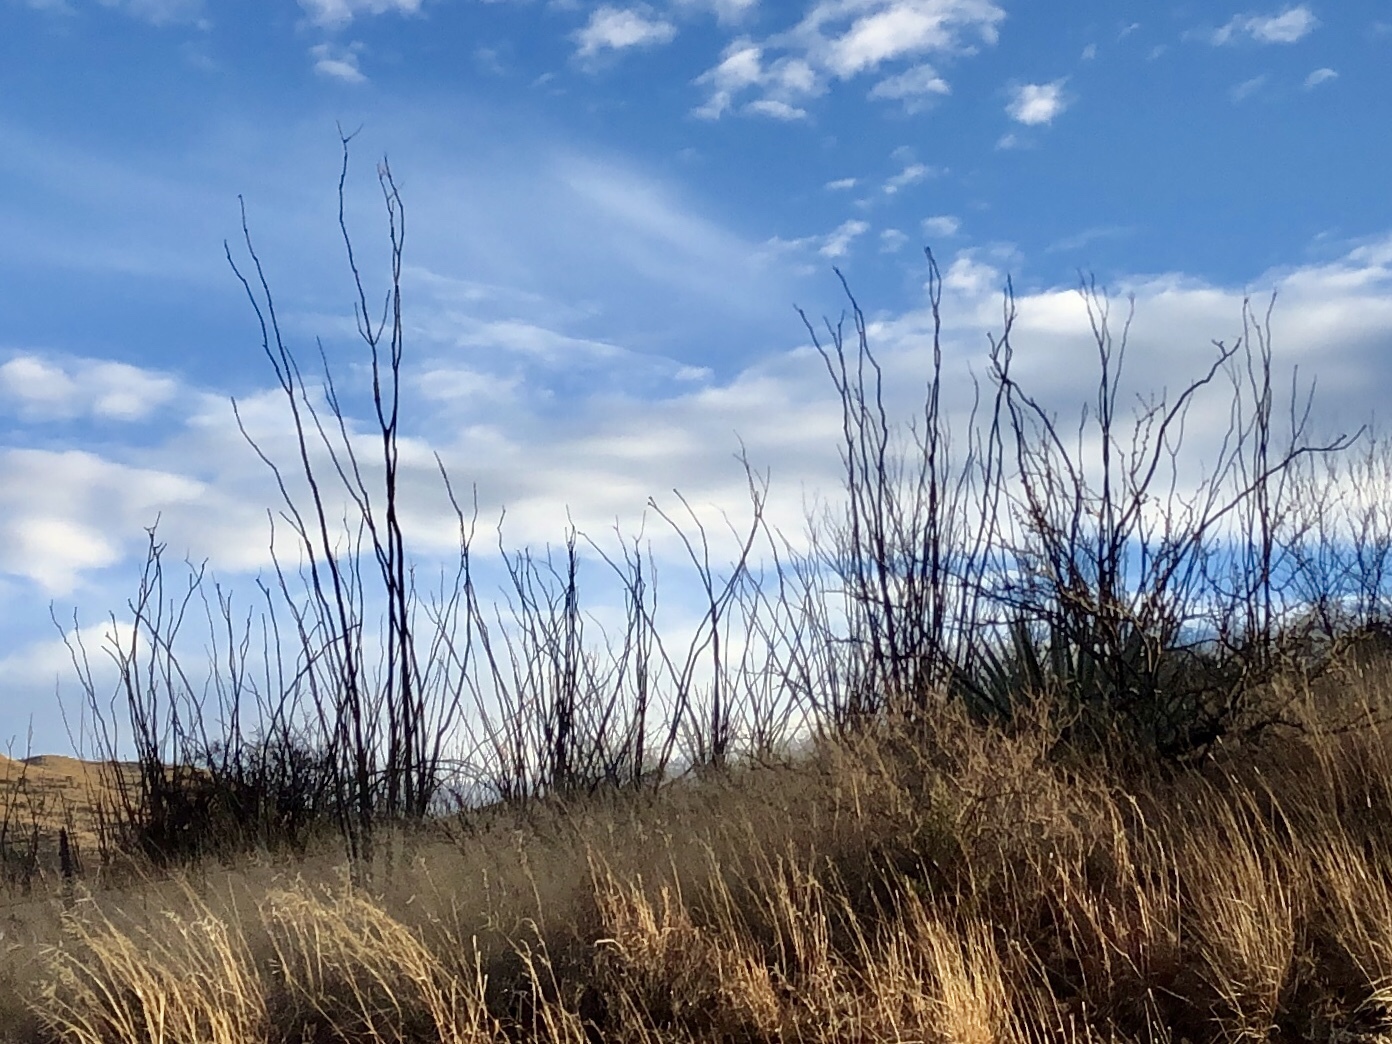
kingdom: Plantae
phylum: Tracheophyta
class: Magnoliopsida
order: Ericales
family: Fouquieriaceae
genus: Fouquieria
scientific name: Fouquieria splendens
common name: Vine-cactus
